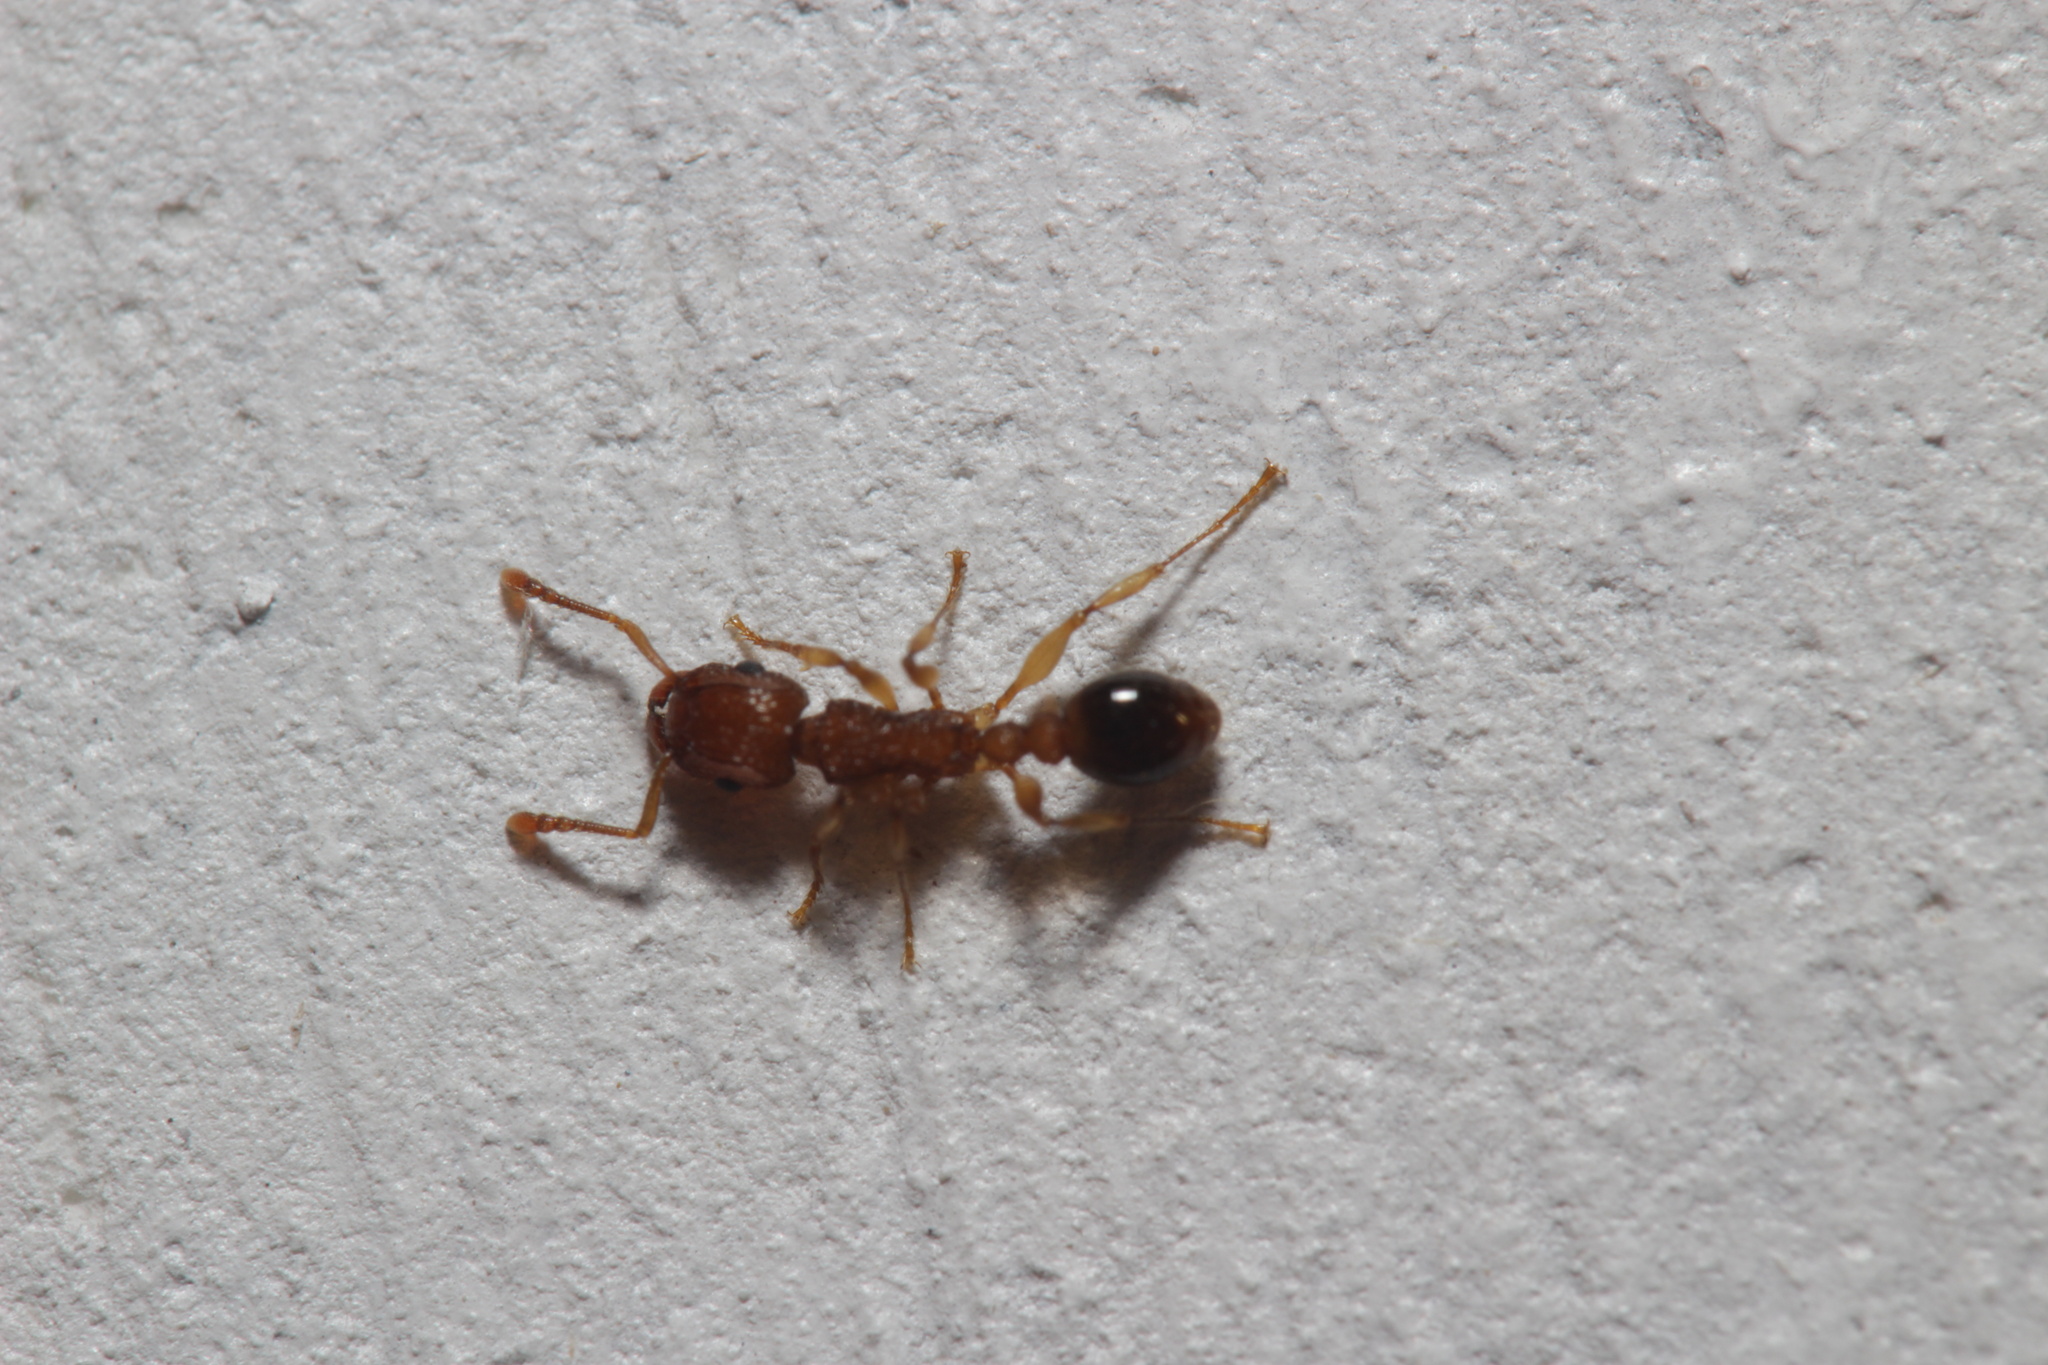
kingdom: Animalia
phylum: Arthropoda
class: Insecta
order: Hymenoptera
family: Formicidae
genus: Tetramorium
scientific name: Tetramorium bicarinatum
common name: Guinea ant
